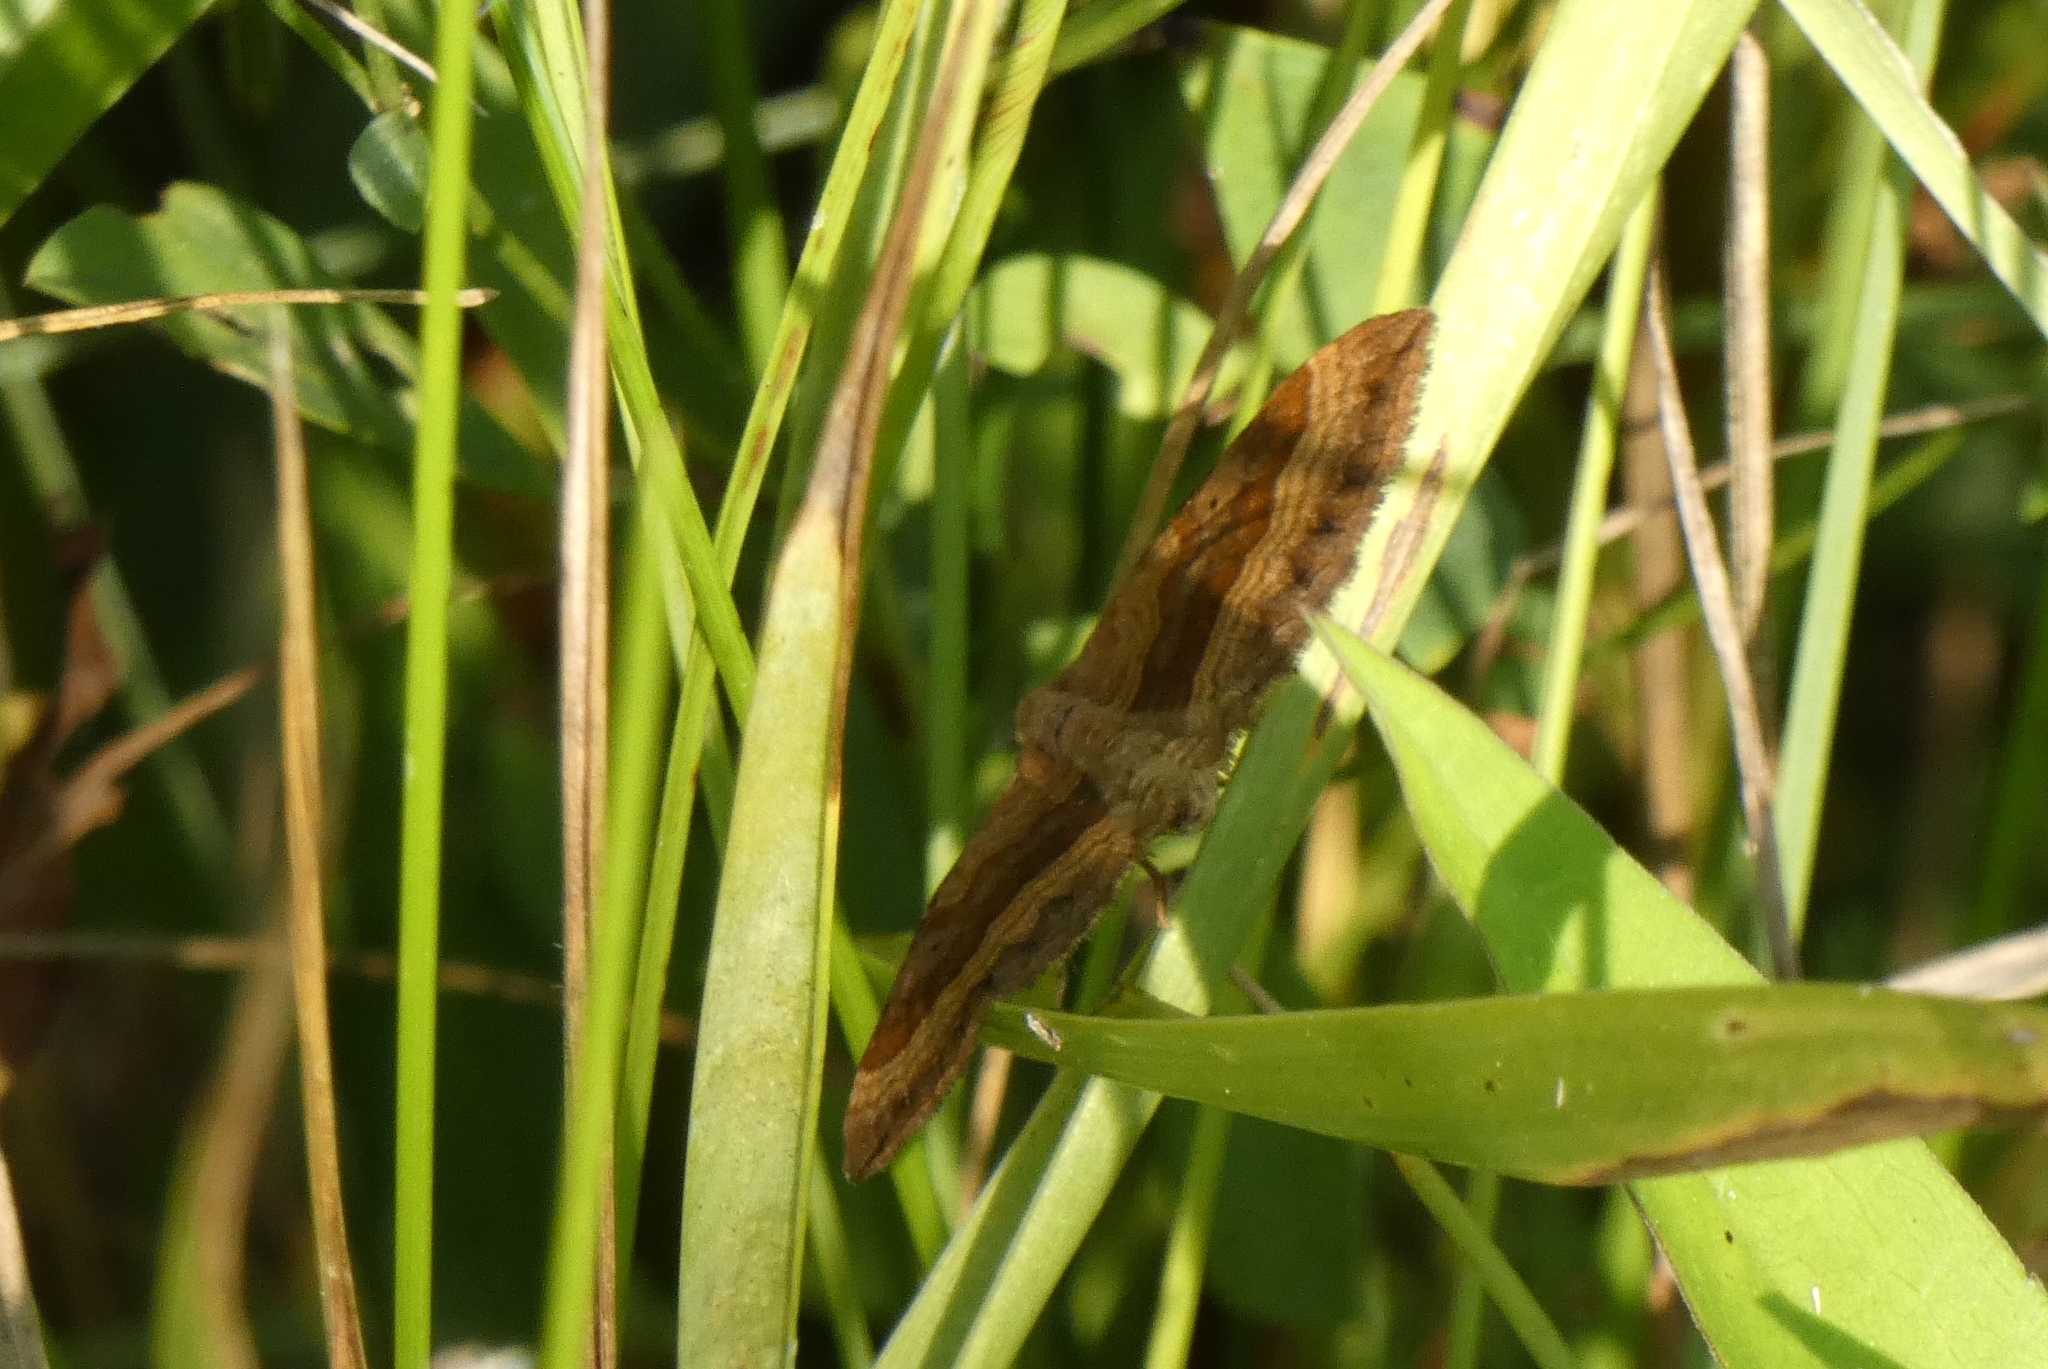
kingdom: Animalia
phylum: Arthropoda
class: Insecta
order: Lepidoptera
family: Geometridae
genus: Scotopteryx
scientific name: Scotopteryx chenopodiata
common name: Shaded broad-bar
